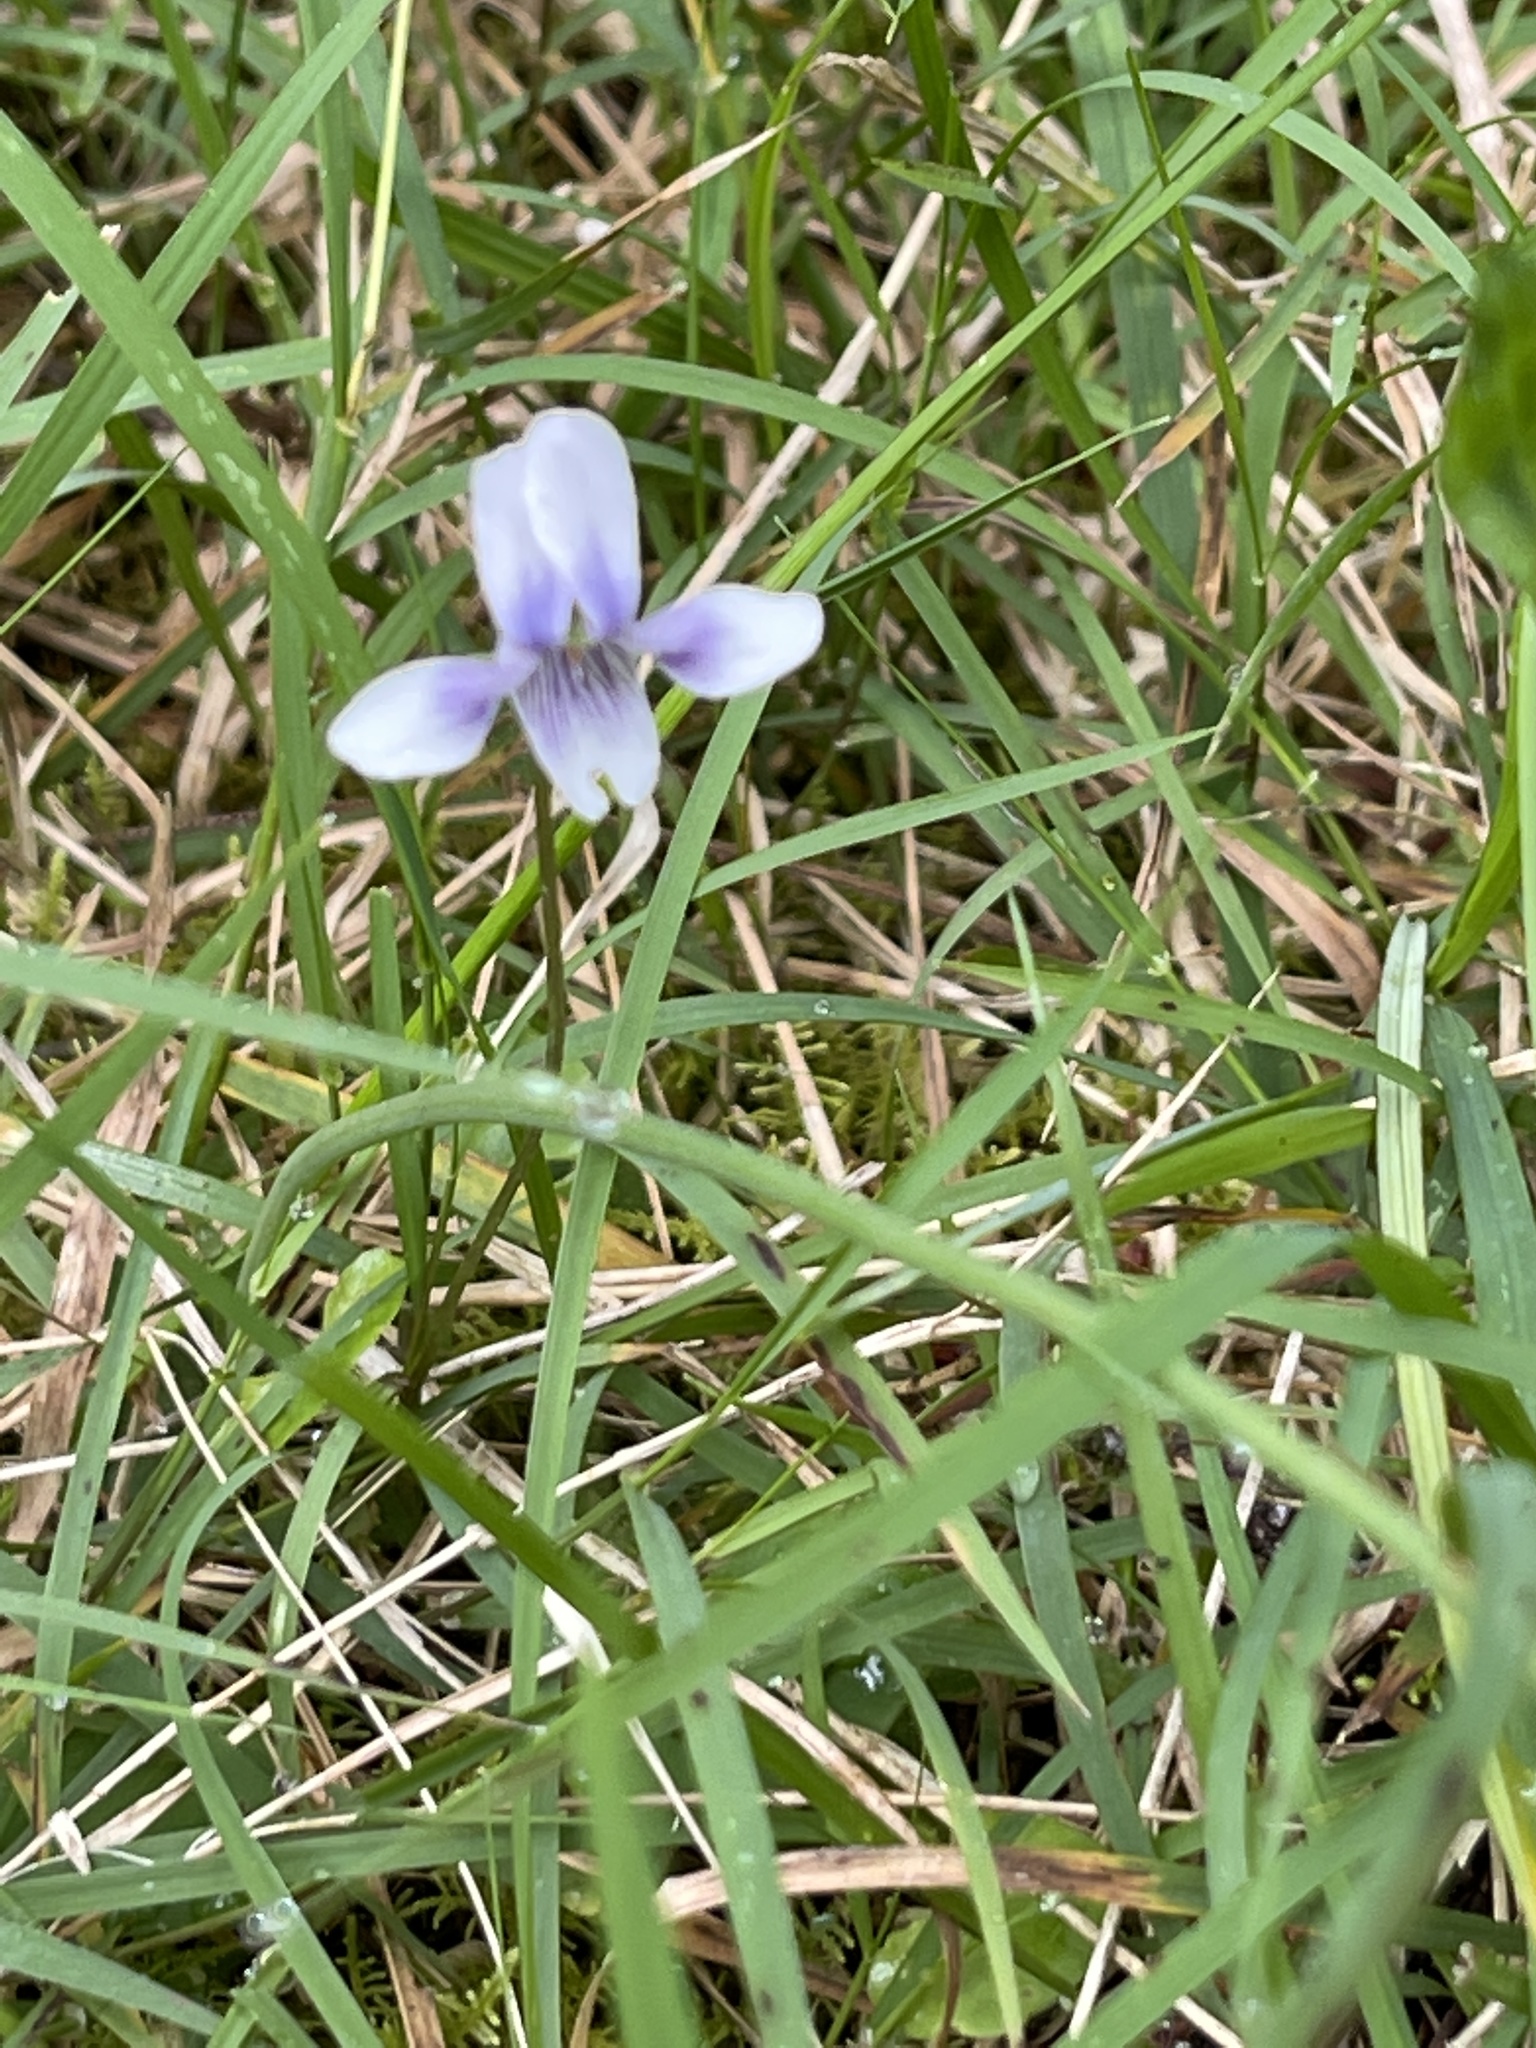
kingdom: Plantae
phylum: Tracheophyta
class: Magnoliopsida
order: Malpighiales
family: Violaceae
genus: Viola
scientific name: Viola hederacea
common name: Australian violet
